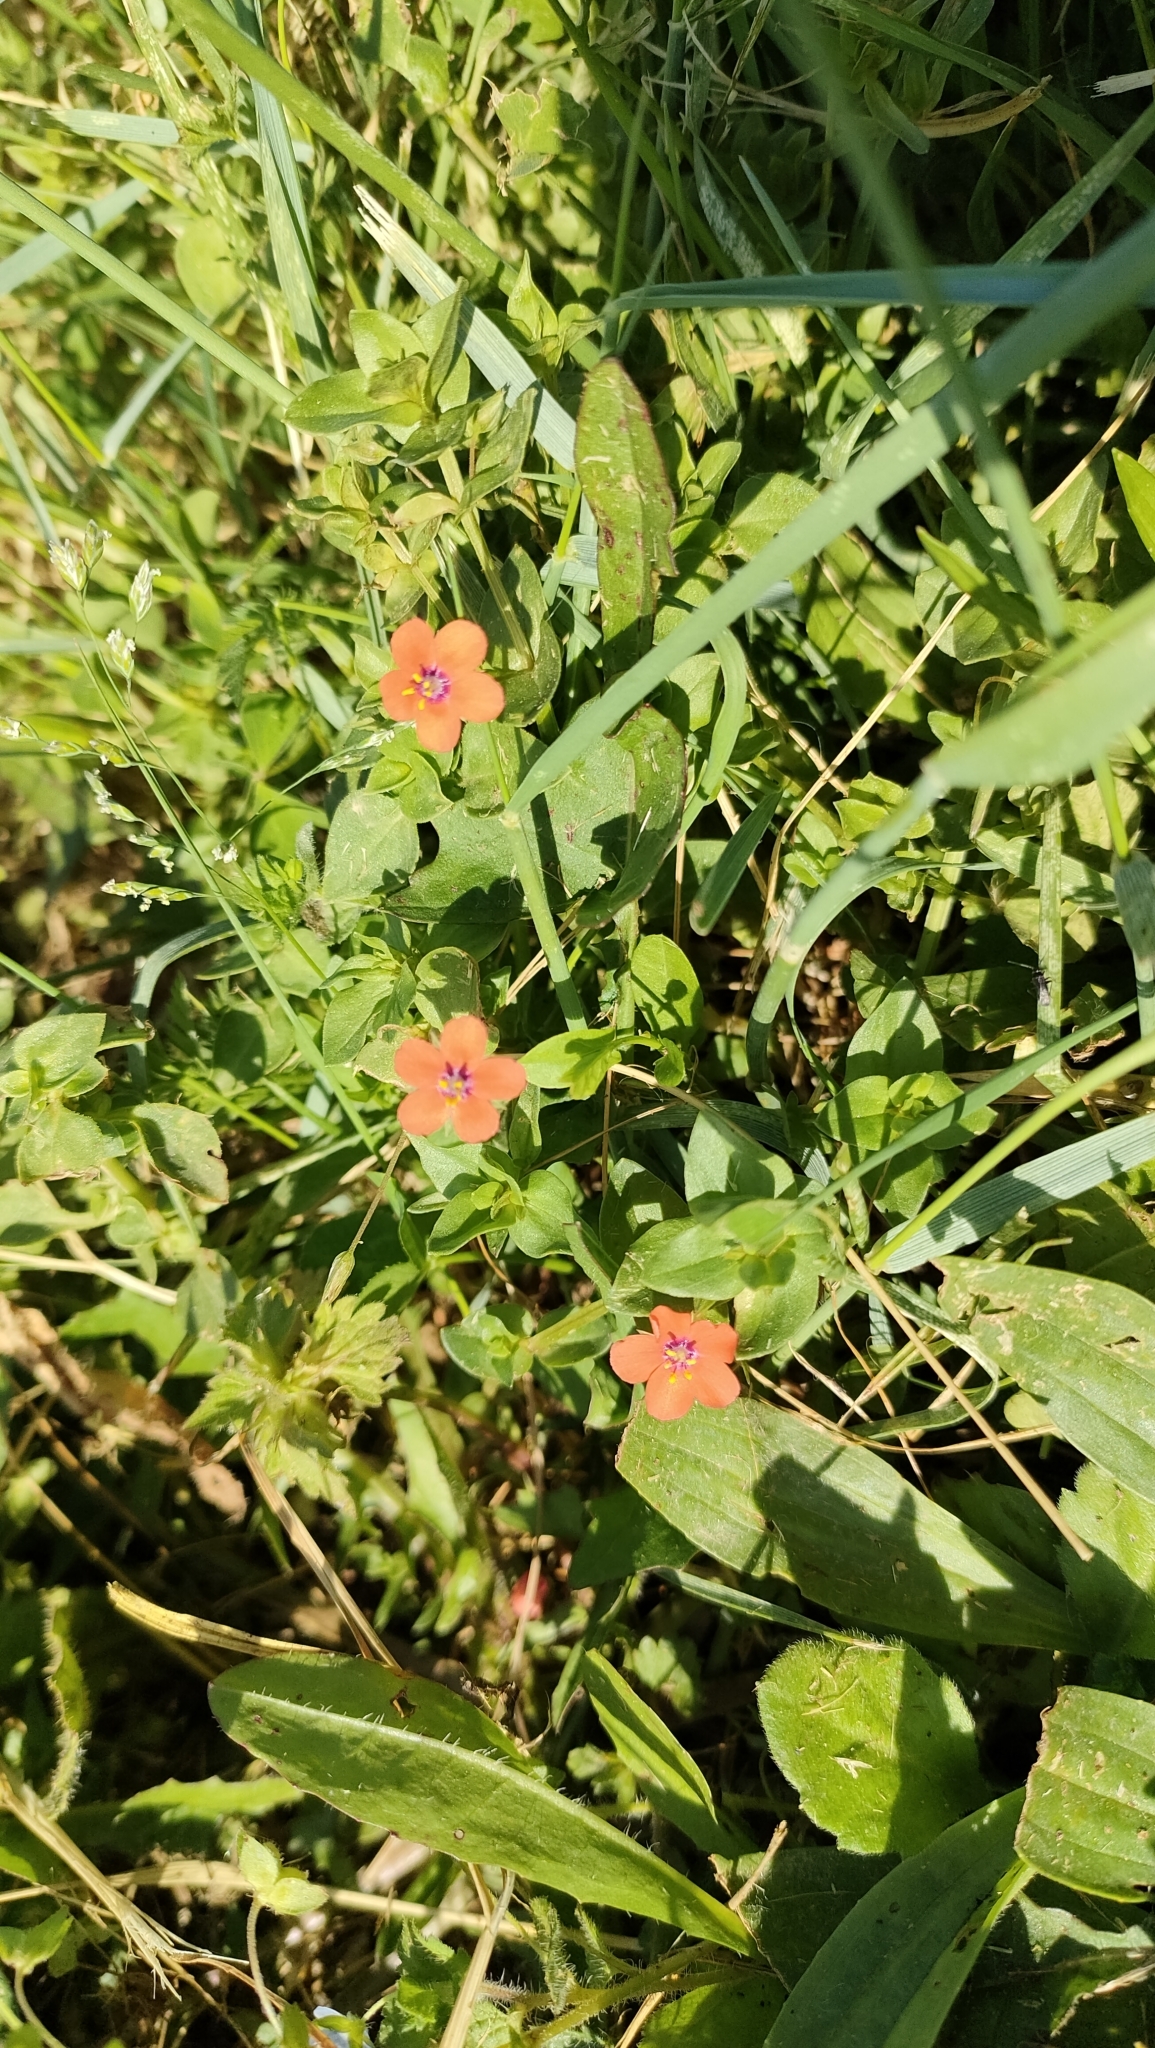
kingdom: Plantae
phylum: Tracheophyta
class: Magnoliopsida
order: Ericales
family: Primulaceae
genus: Lysimachia
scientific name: Lysimachia arvensis
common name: Scarlet pimpernel
